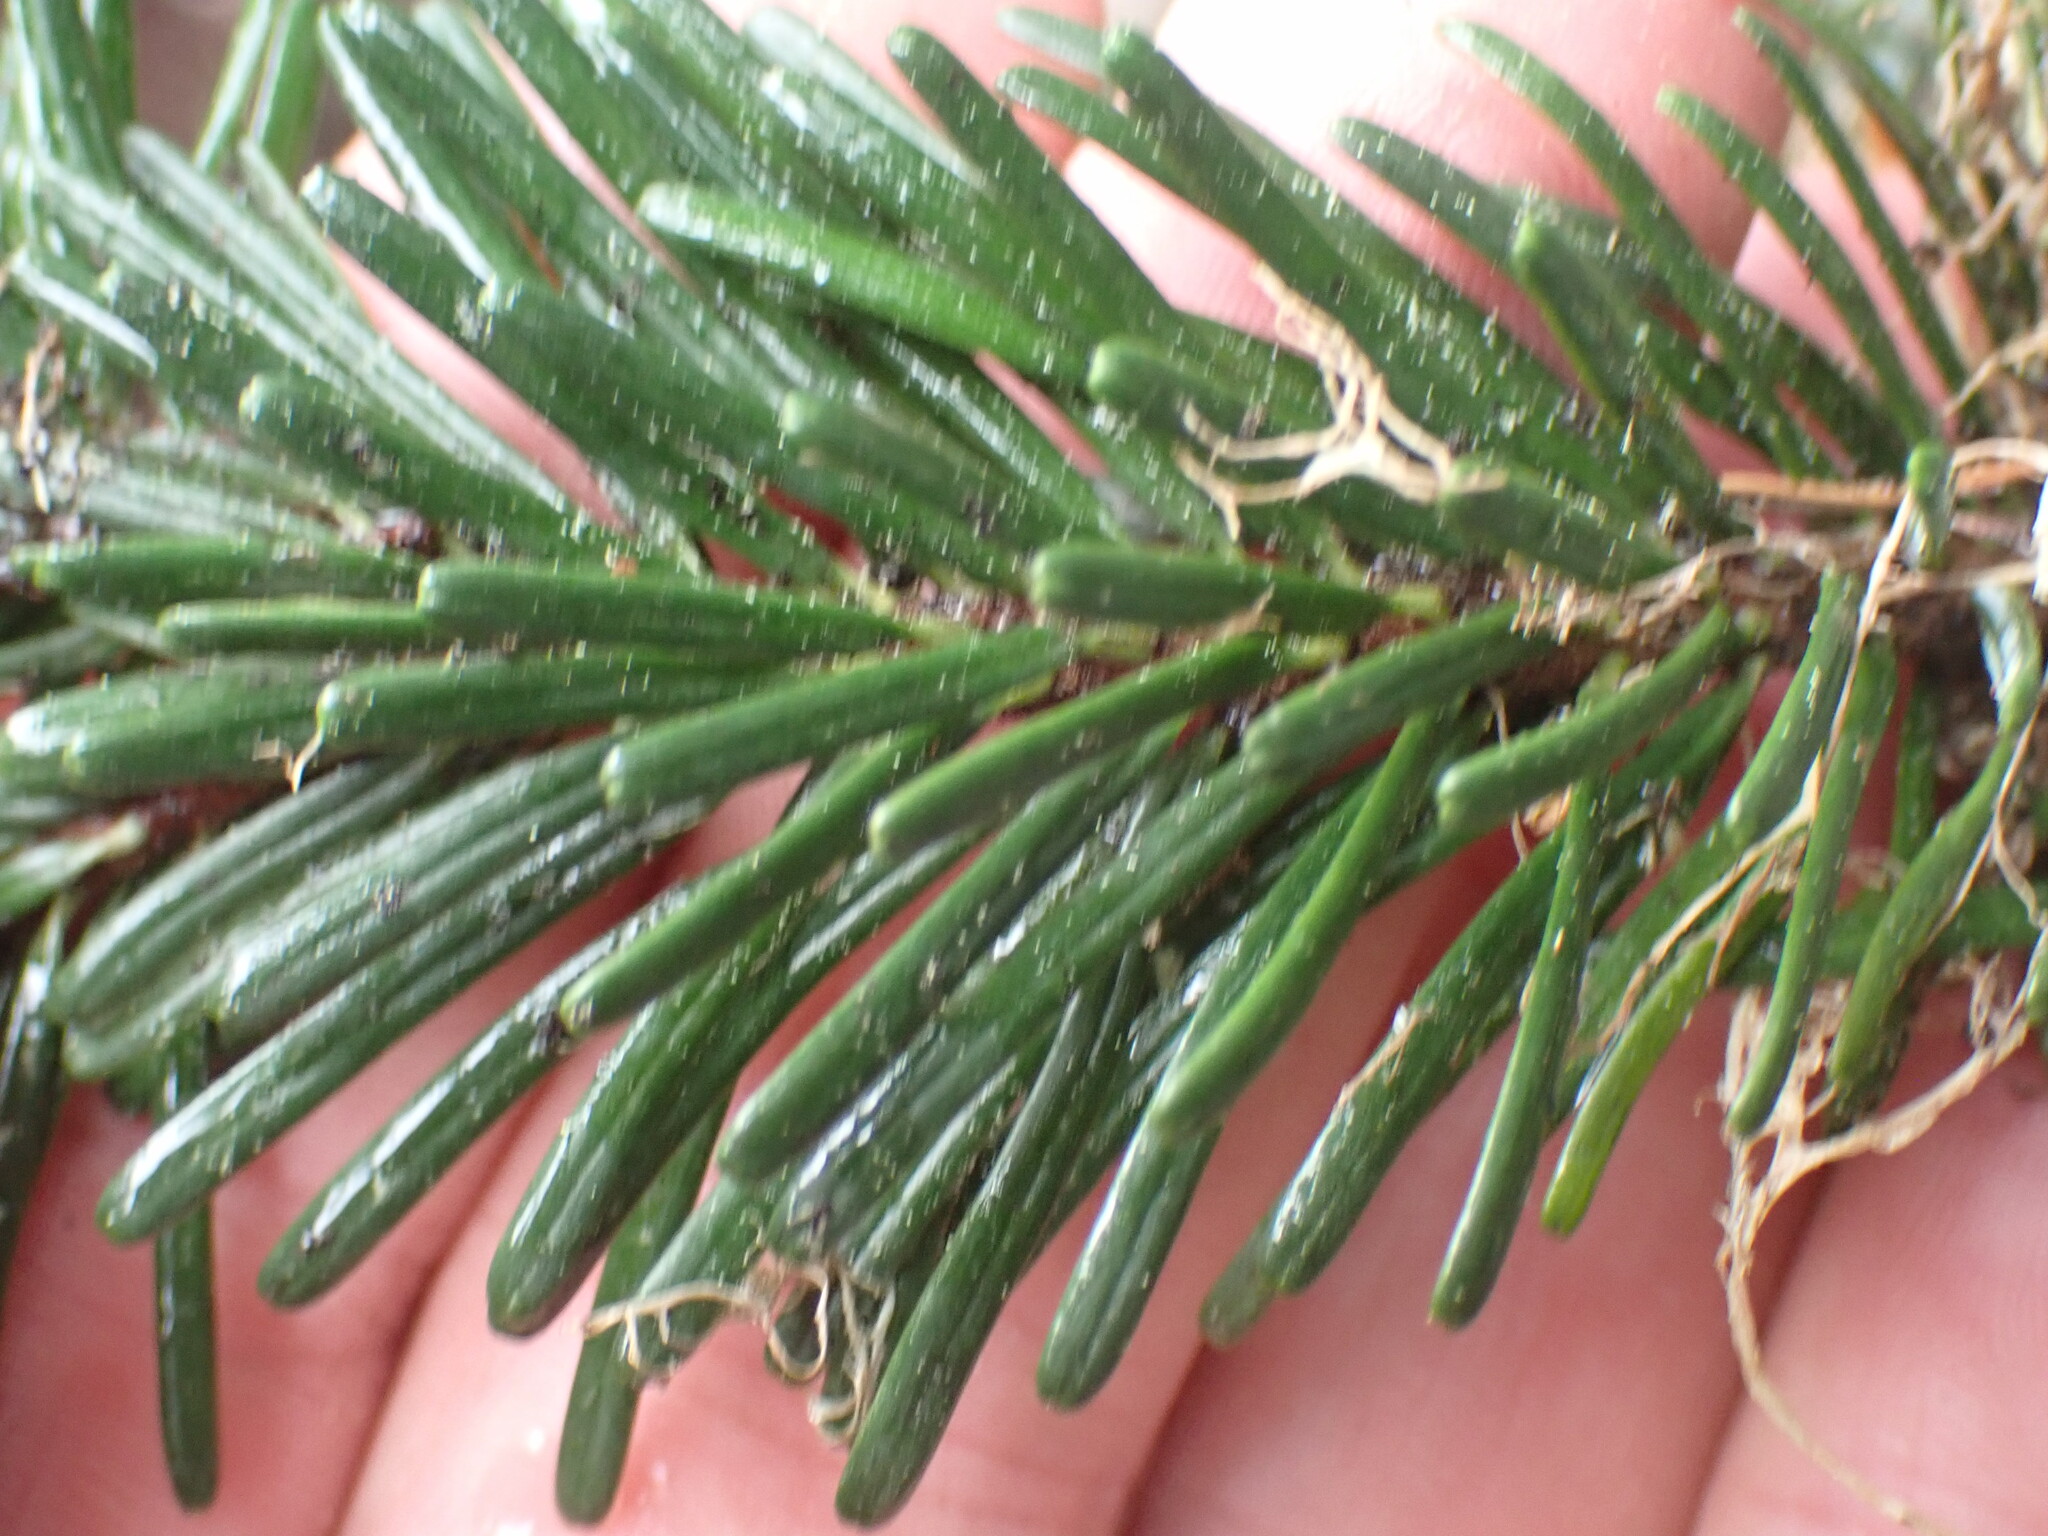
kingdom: Plantae
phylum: Tracheophyta
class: Pinopsida
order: Pinales
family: Pinaceae
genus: Abies
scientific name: Abies amabilis
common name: Pacific silver fir
